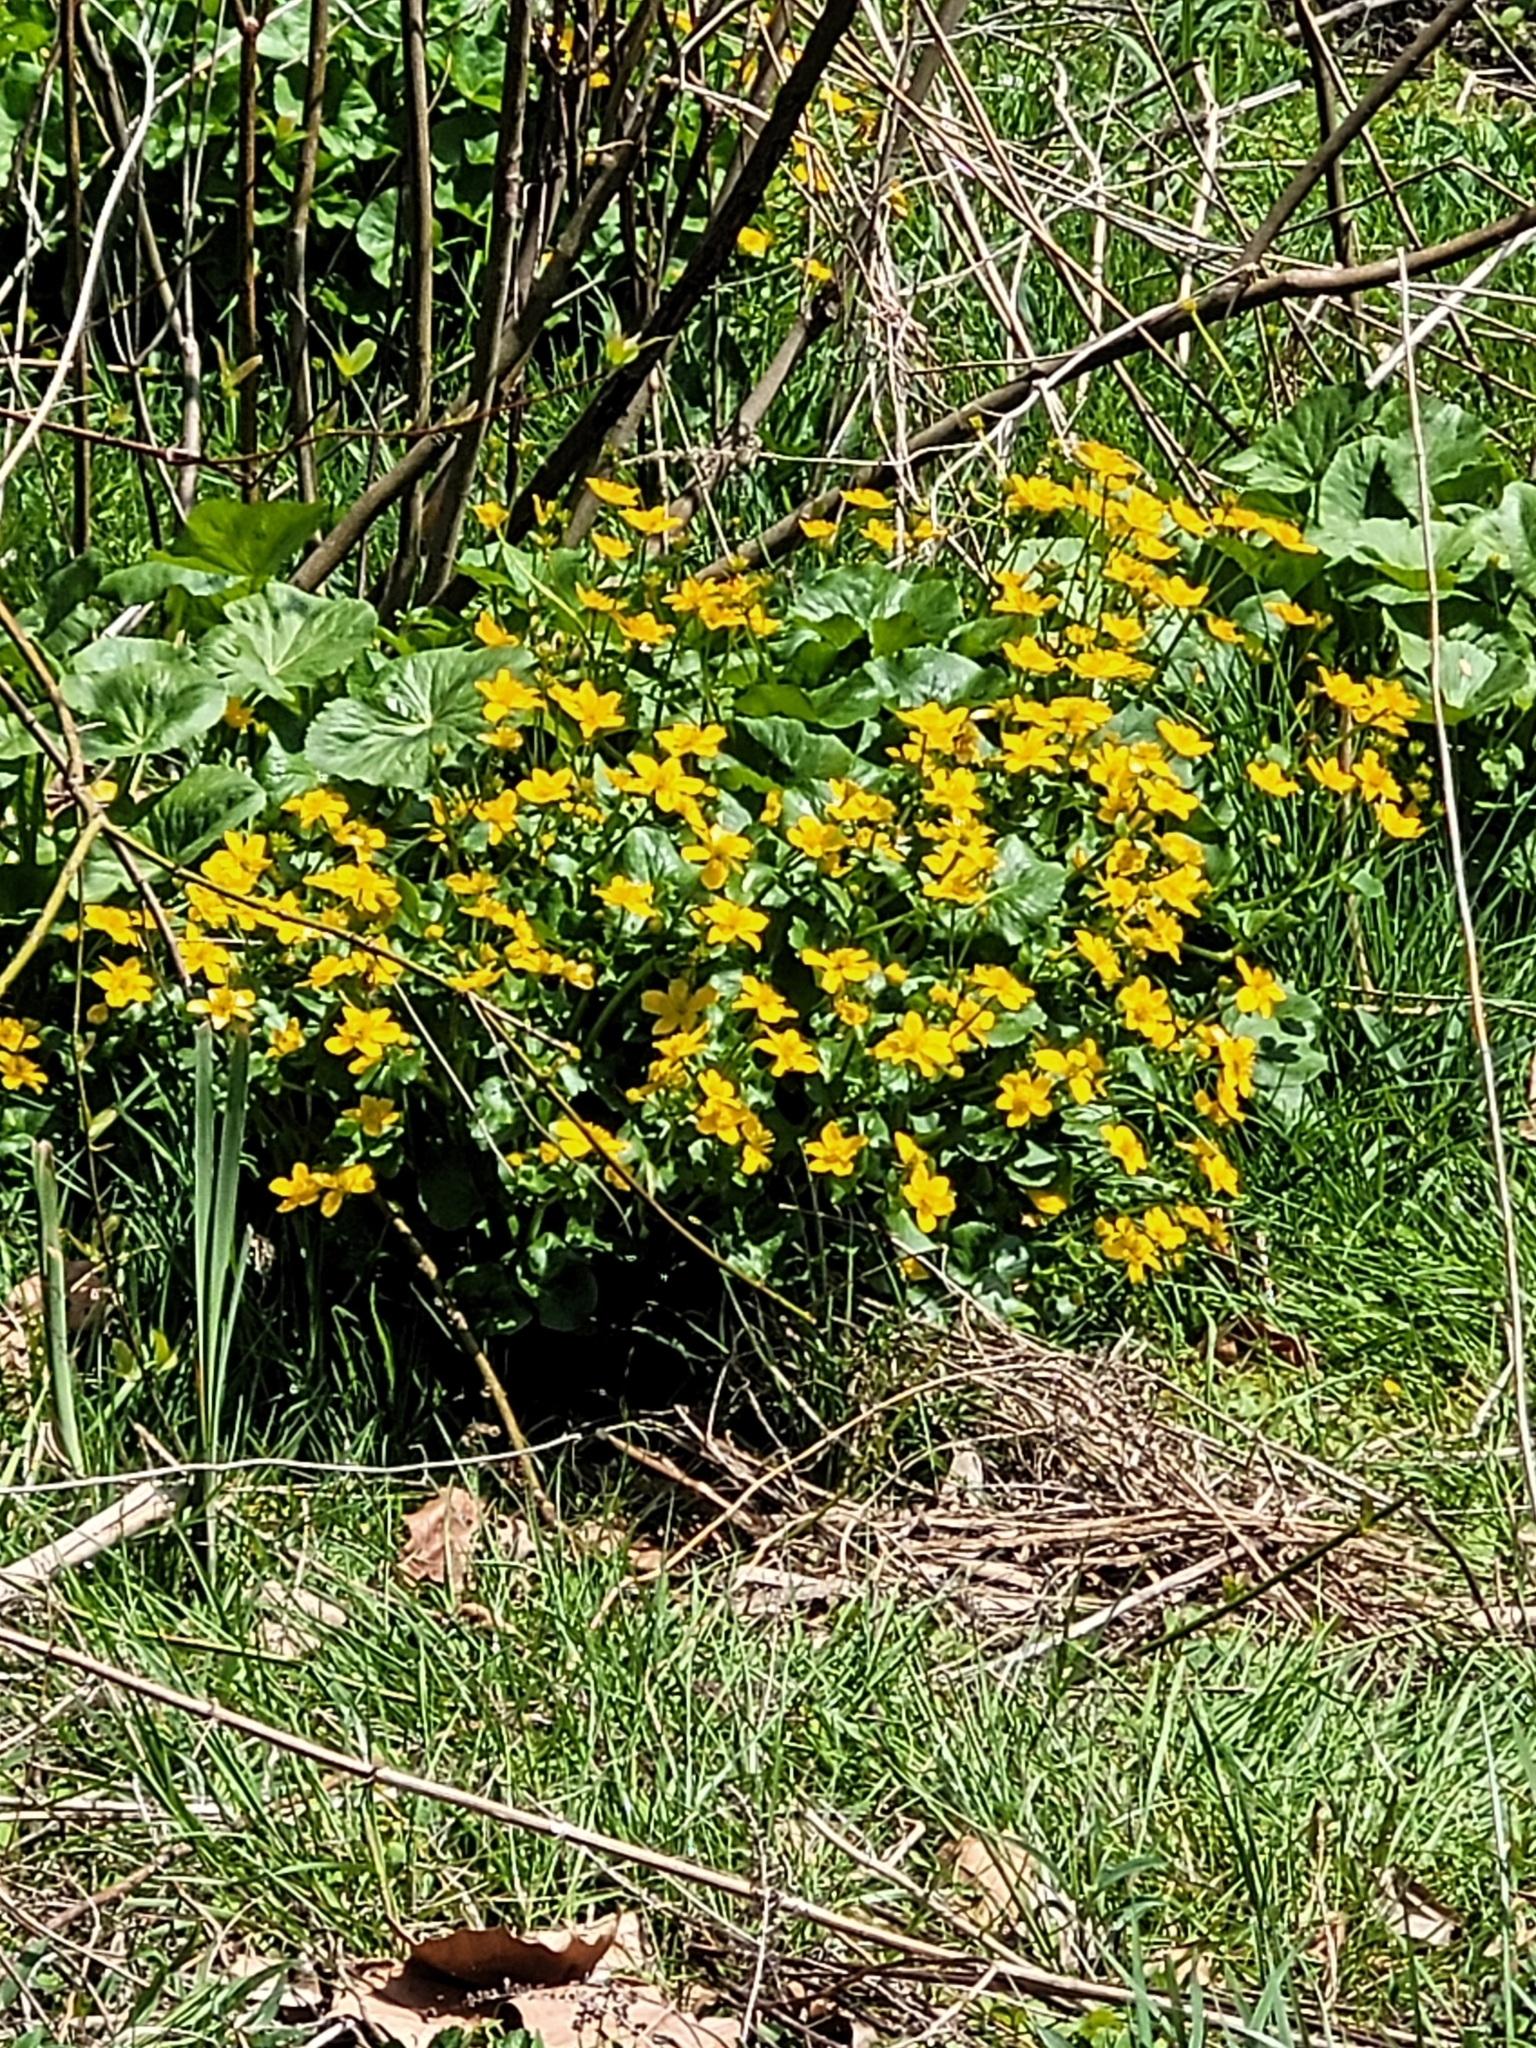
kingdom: Plantae
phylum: Tracheophyta
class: Magnoliopsida
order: Ranunculales
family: Ranunculaceae
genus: Caltha
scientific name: Caltha palustris
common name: Marsh marigold
